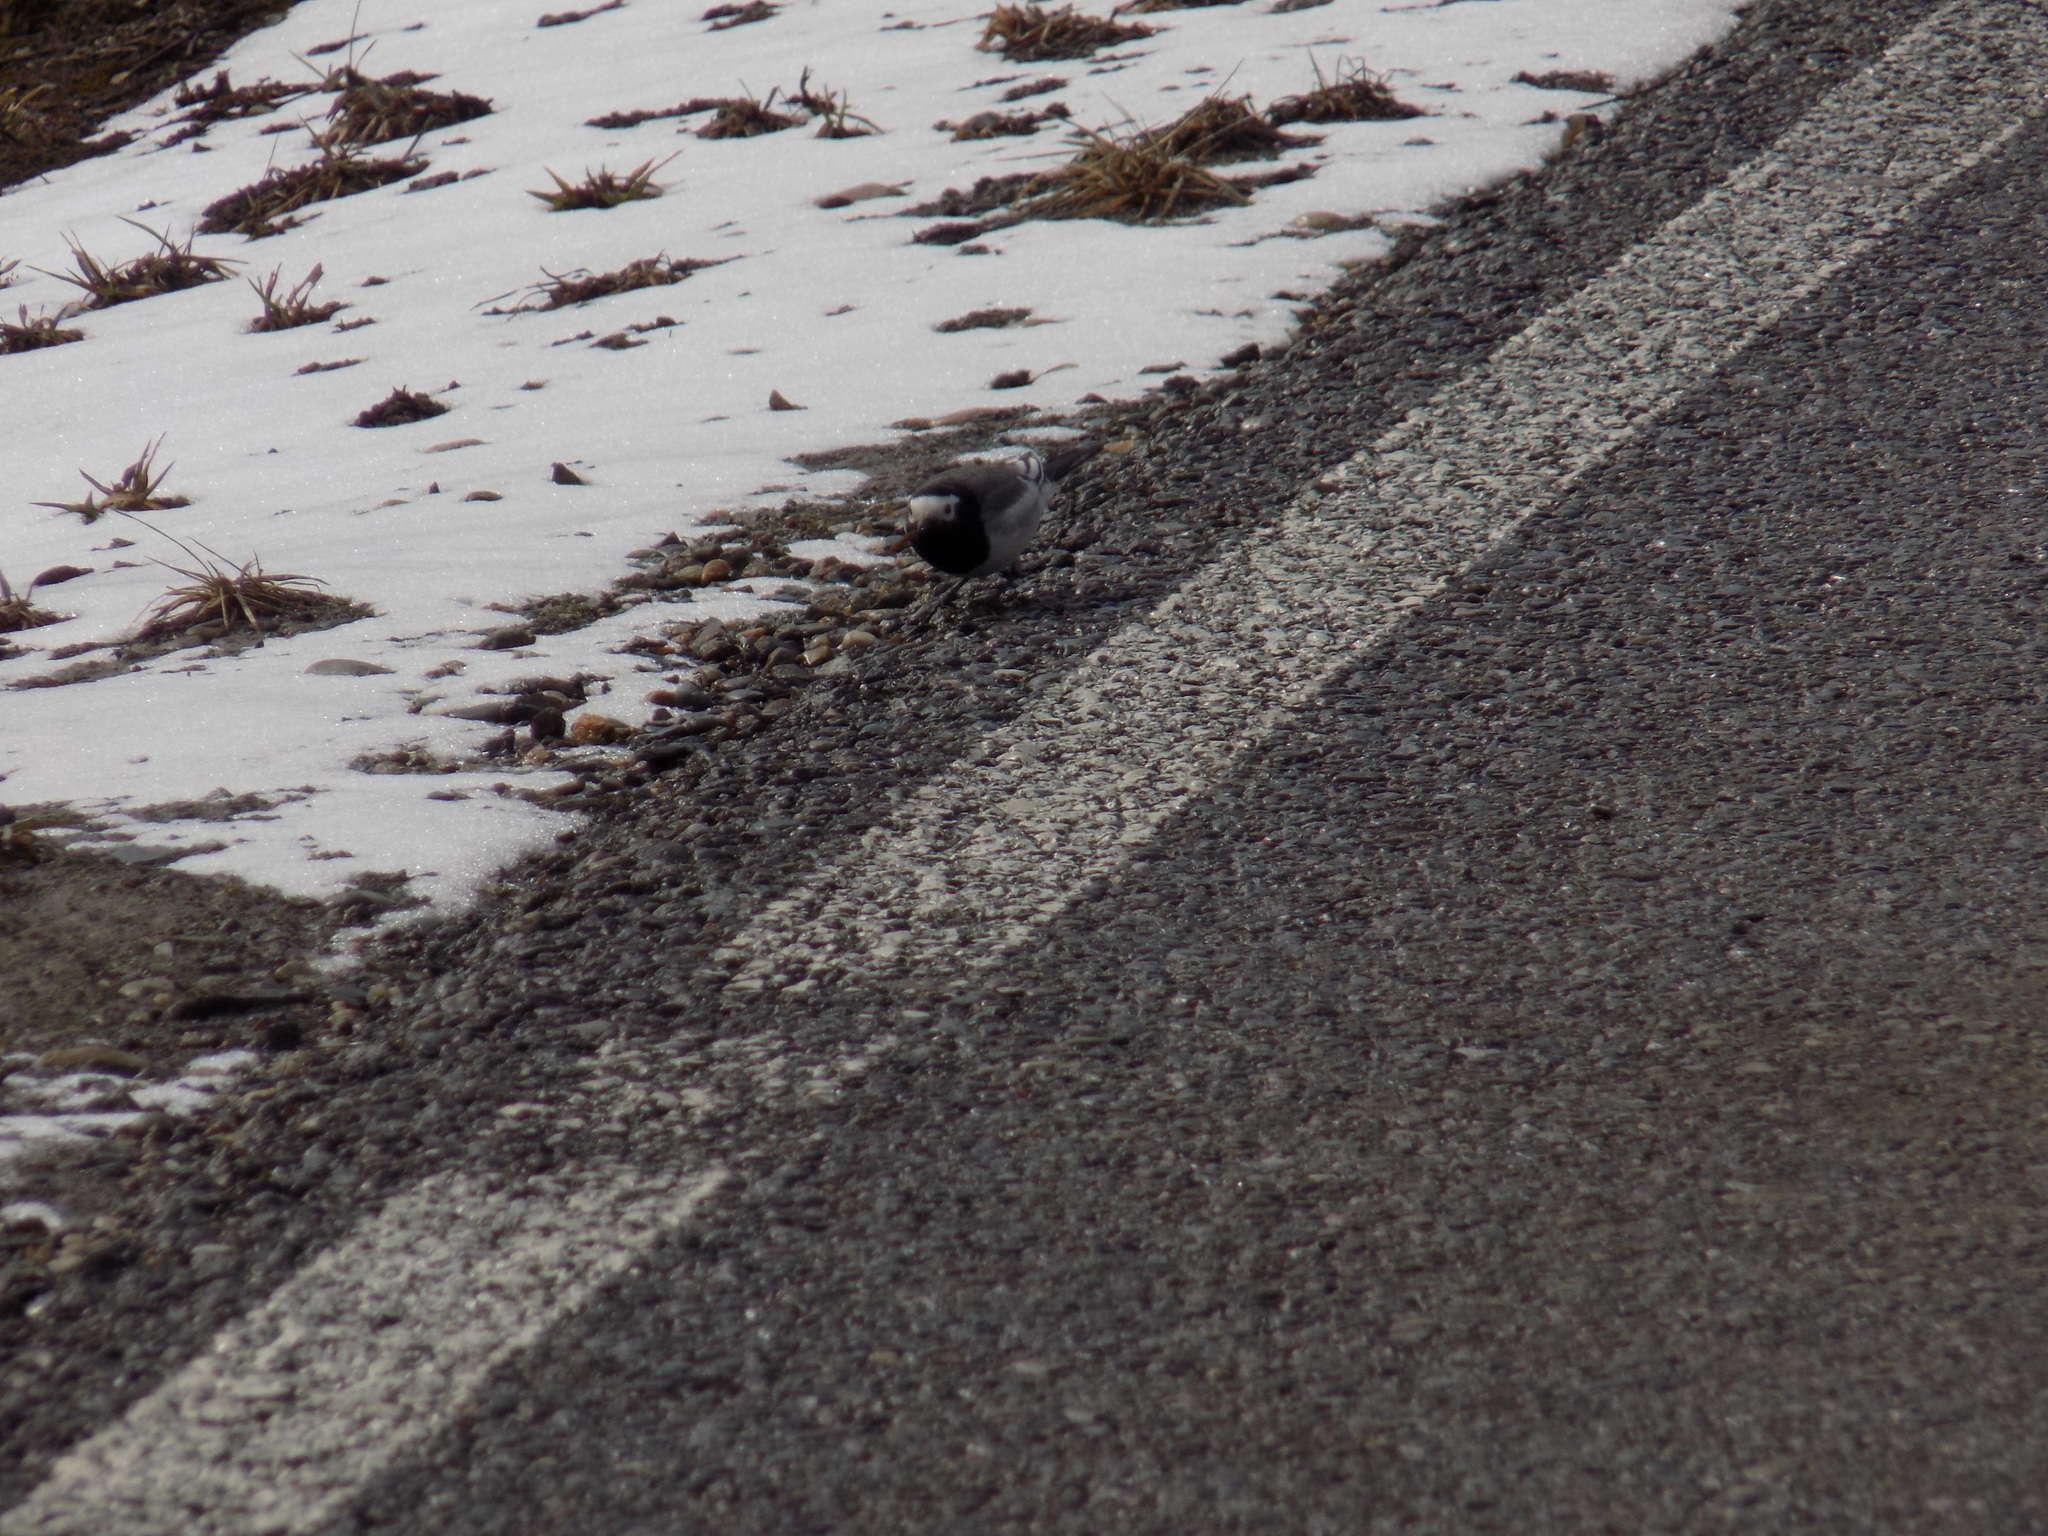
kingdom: Animalia
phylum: Chordata
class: Aves
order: Passeriformes
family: Motacillidae
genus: Motacilla
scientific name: Motacilla alba
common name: White wagtail
